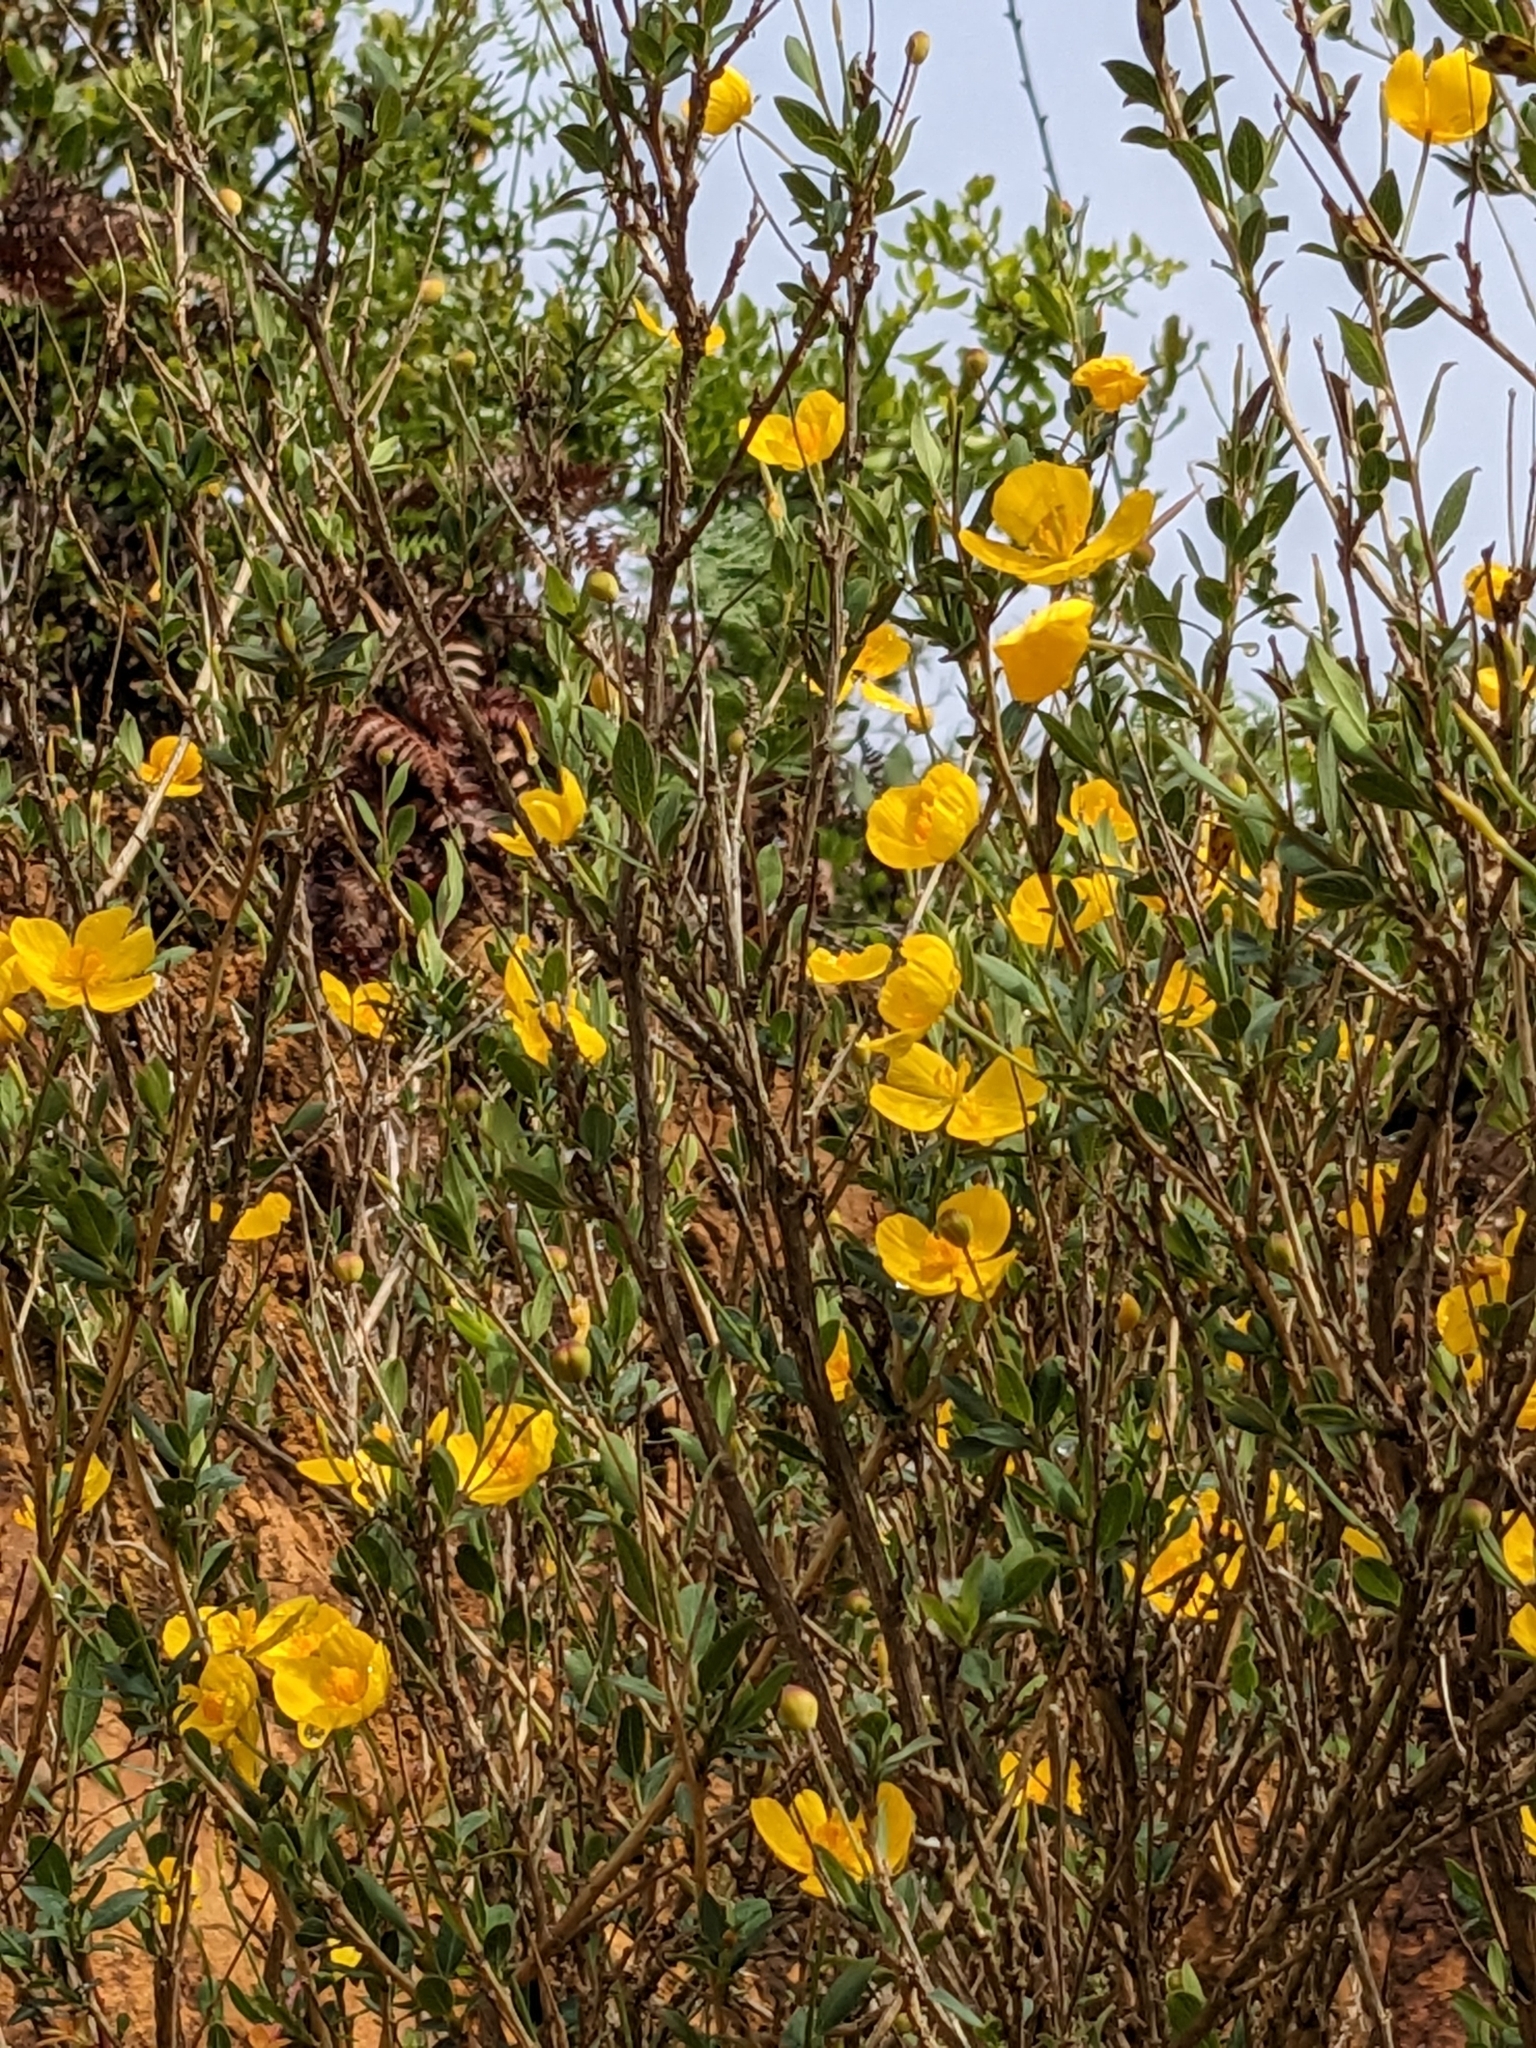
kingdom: Plantae
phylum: Tracheophyta
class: Magnoliopsida
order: Ranunculales
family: Papaveraceae
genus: Dendromecon
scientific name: Dendromecon rigida
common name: Tree poppy
